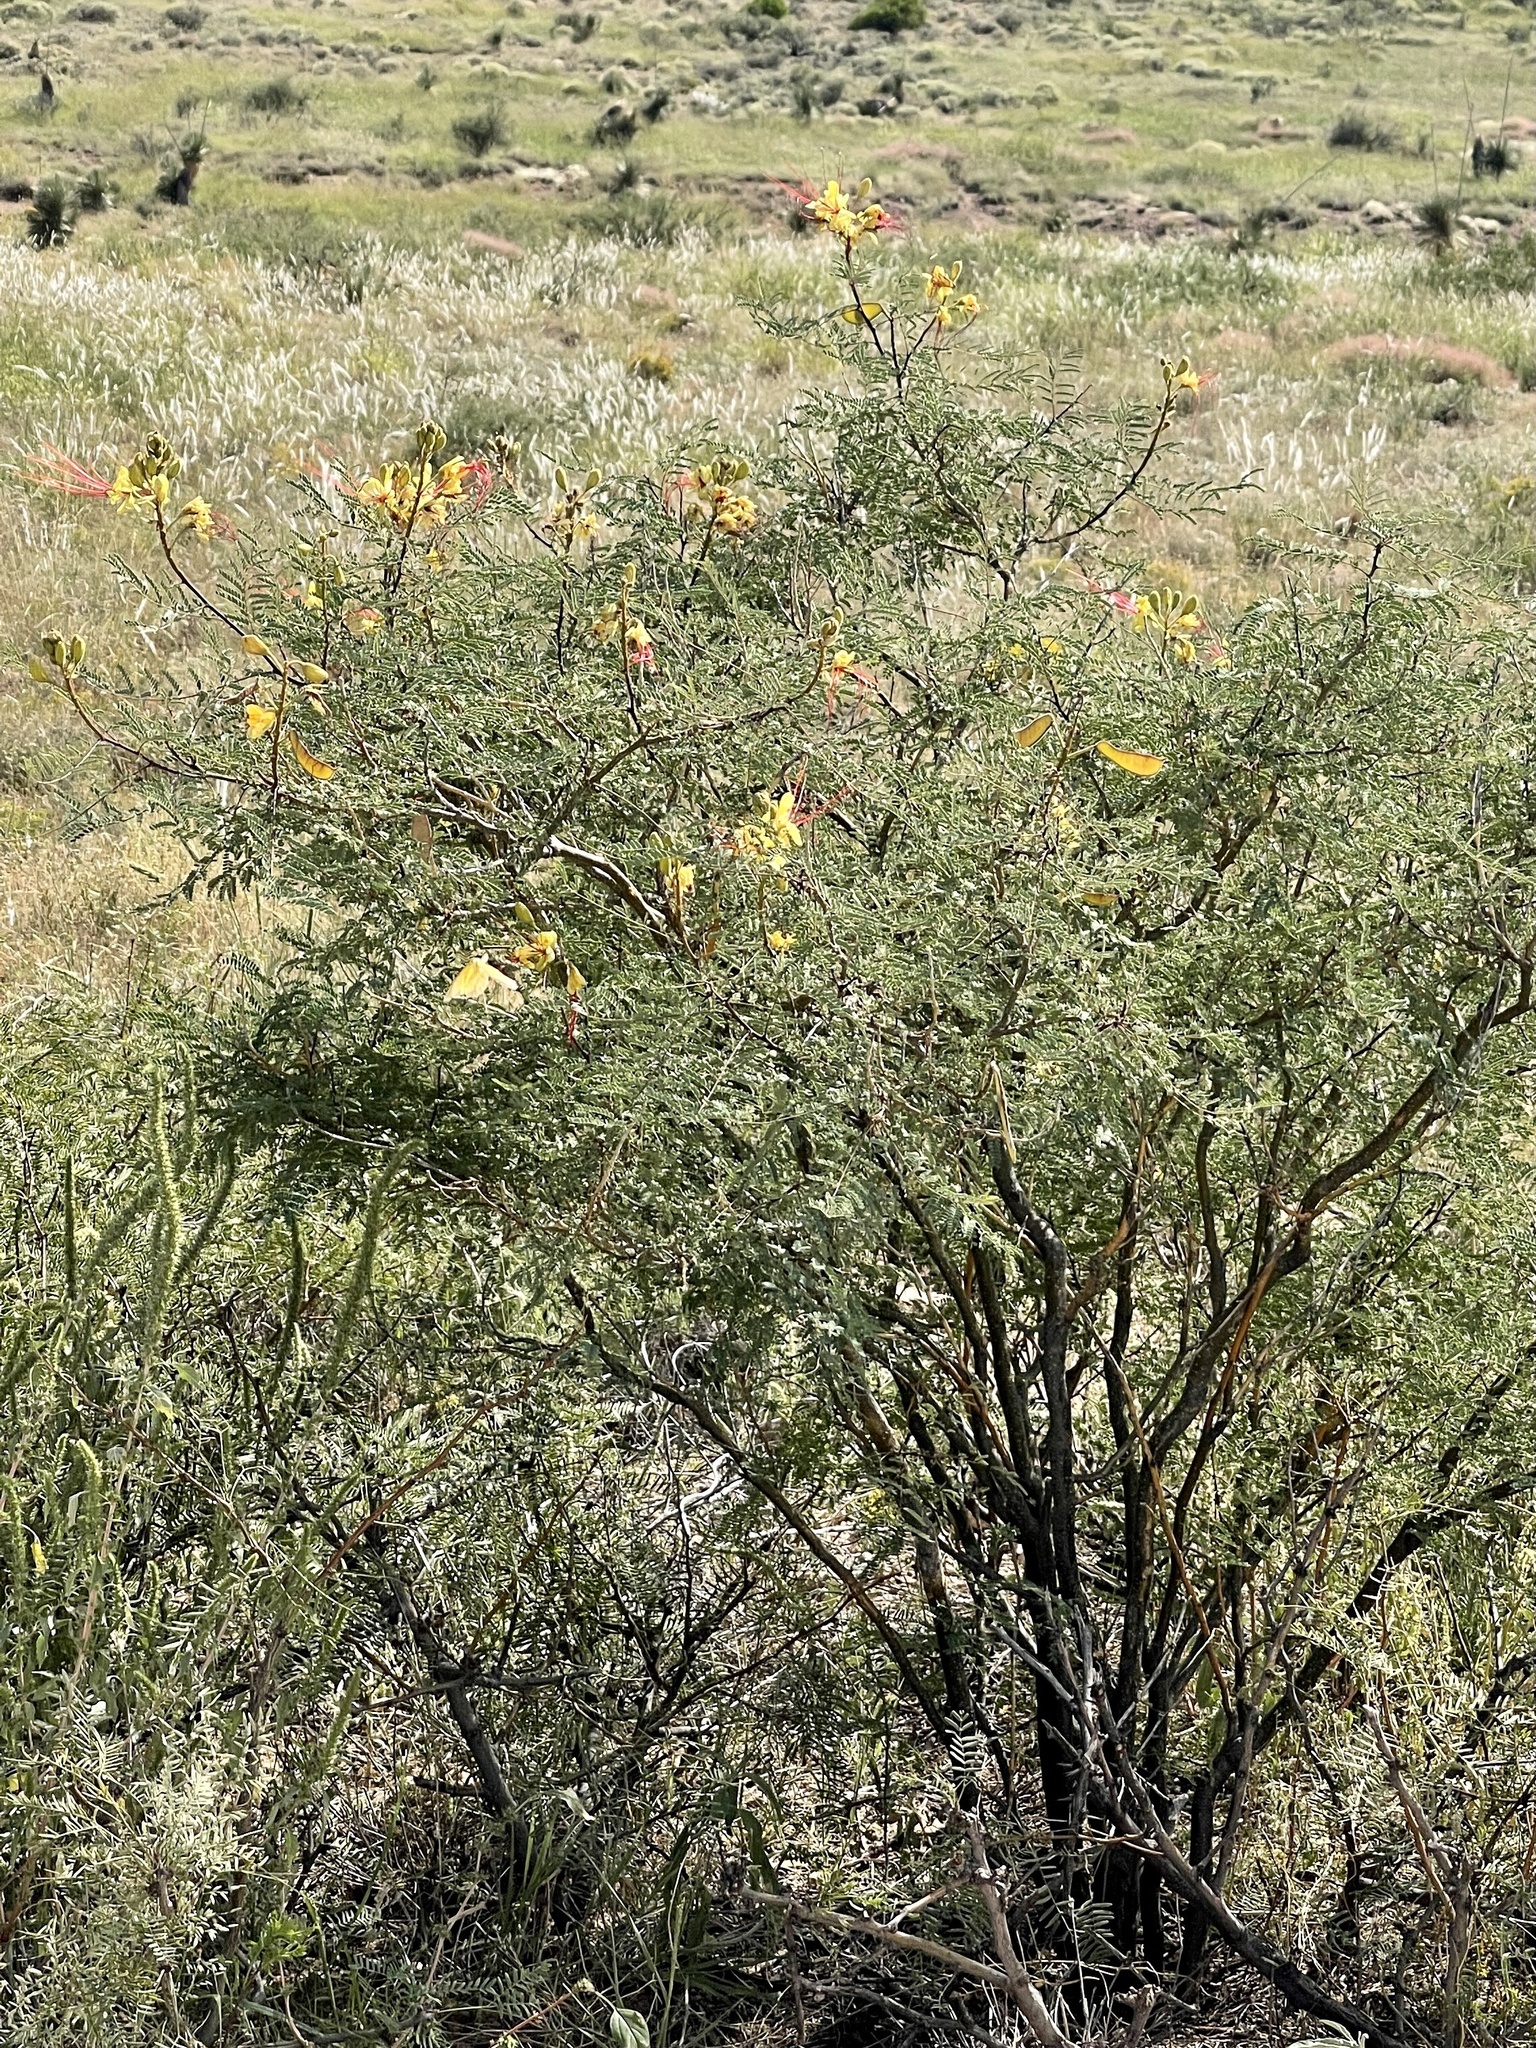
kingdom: Plantae
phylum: Tracheophyta
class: Magnoliopsida
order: Fabales
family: Fabaceae
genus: Erythrostemon
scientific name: Erythrostemon gilliesii
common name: Bird-of-paradise shrub
